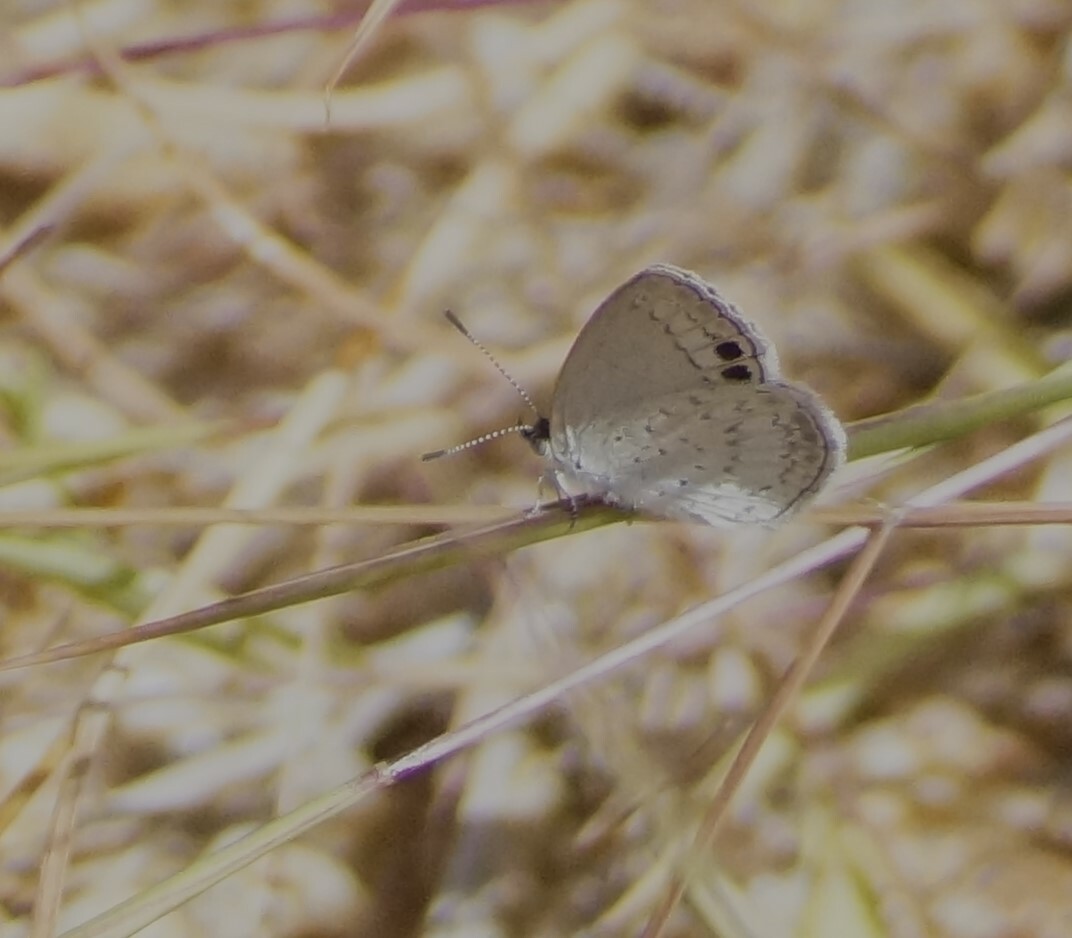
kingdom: Animalia
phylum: Arthropoda
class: Insecta
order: Lepidoptera
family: Lycaenidae
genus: Candalides
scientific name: Candalides
